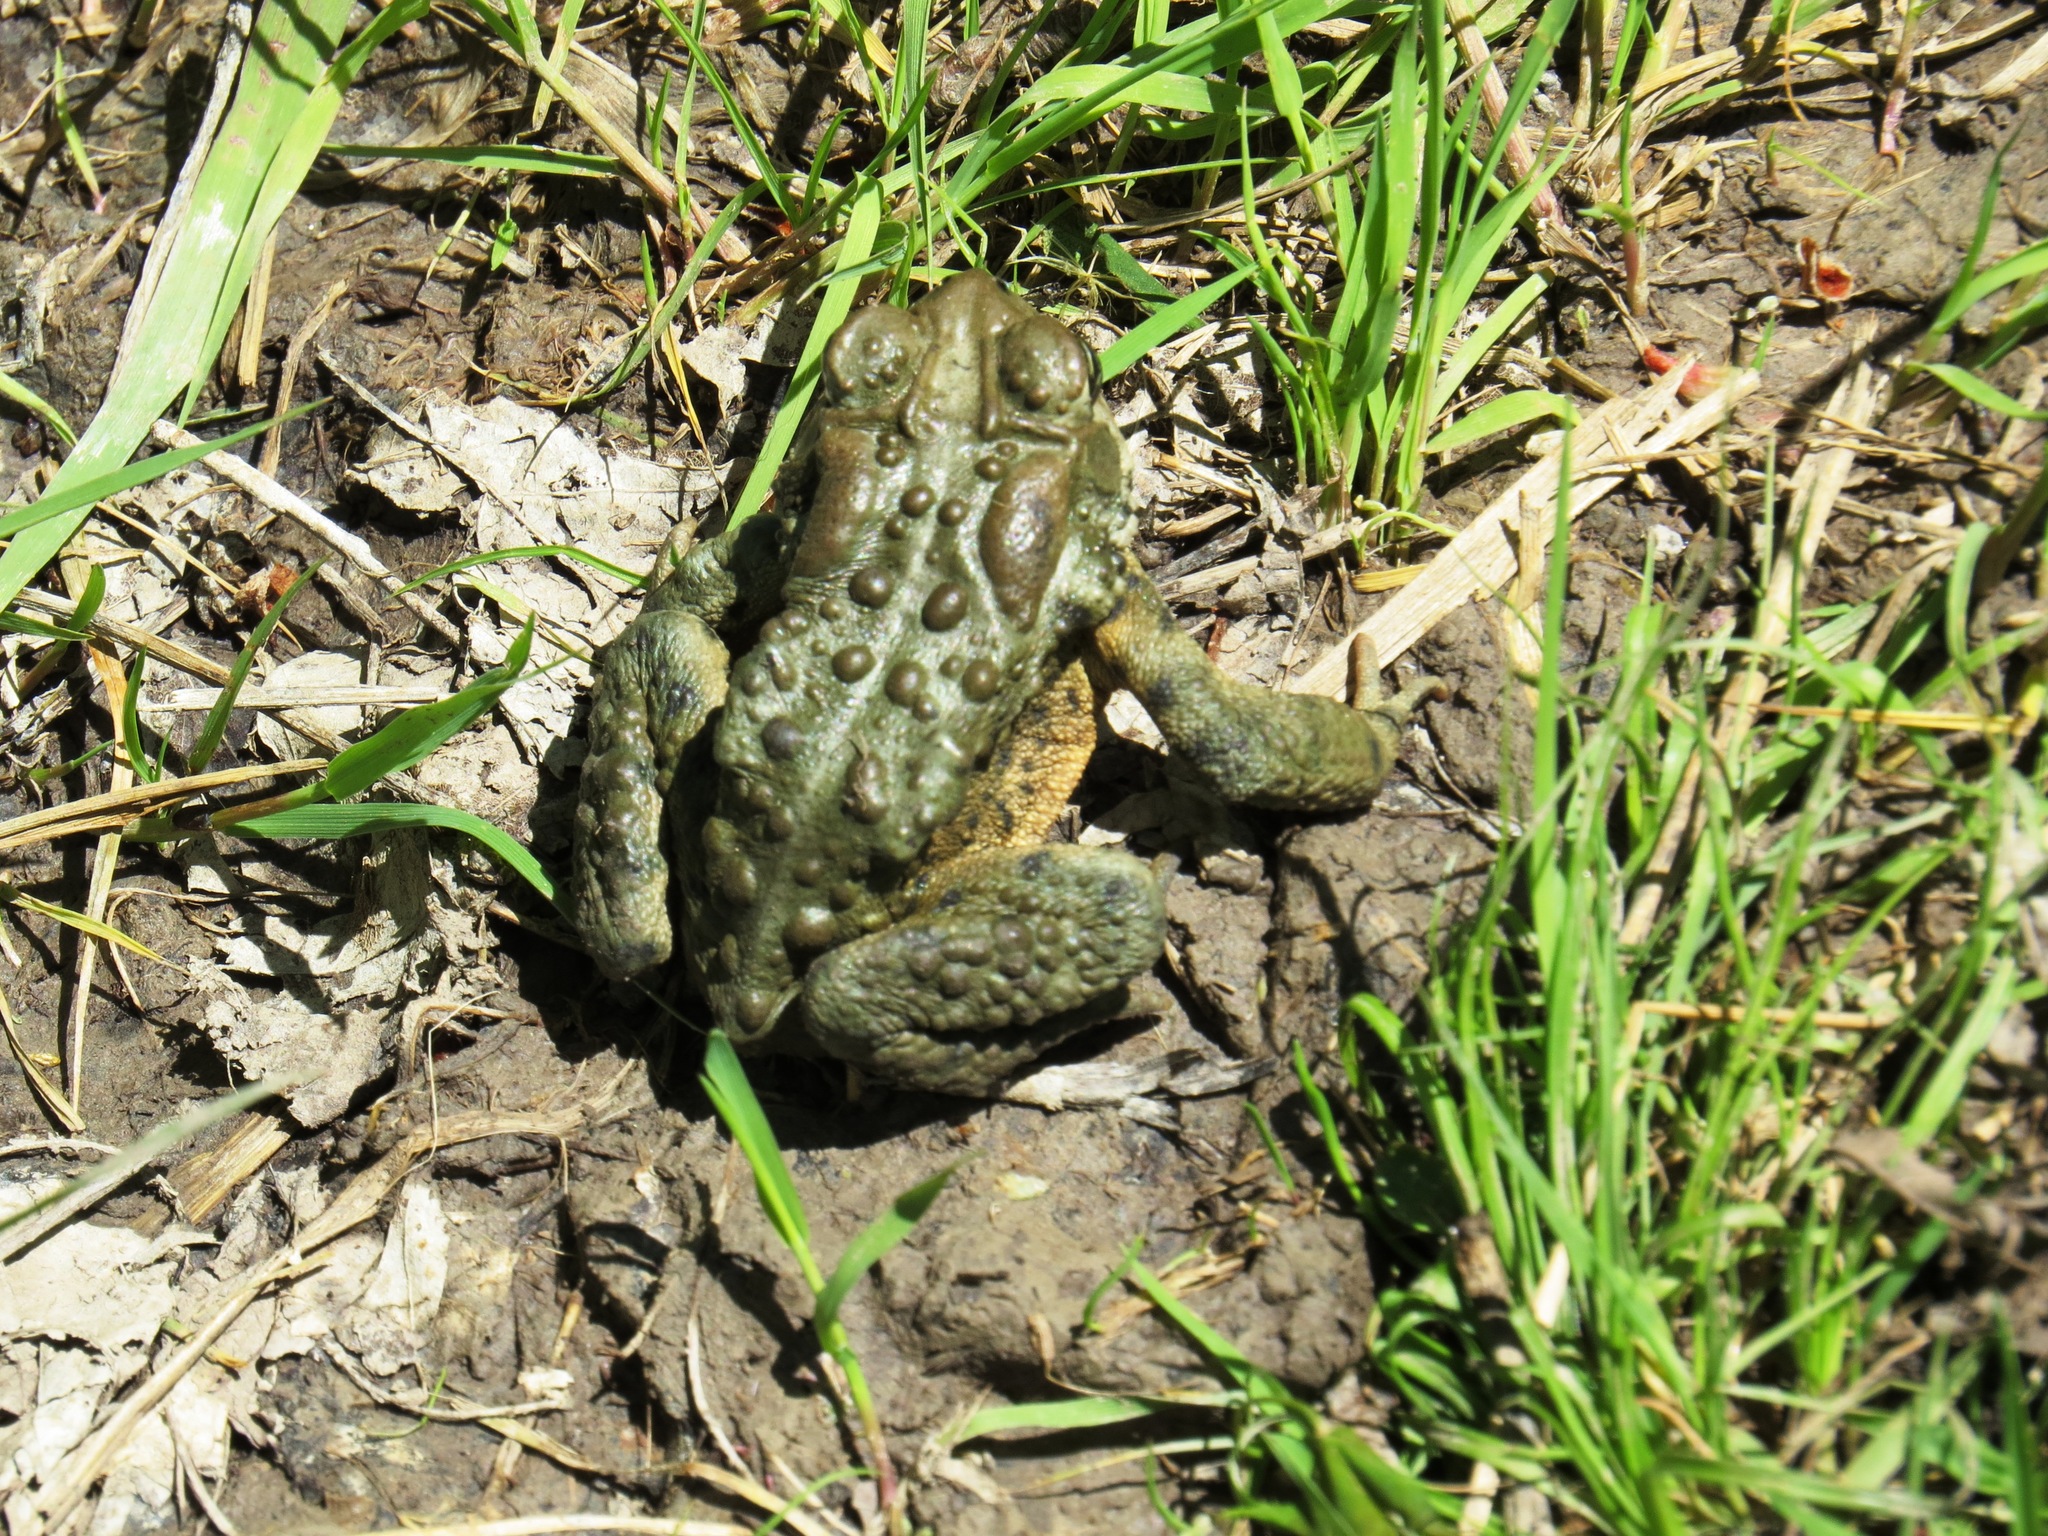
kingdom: Animalia
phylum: Chordata
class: Amphibia
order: Anura
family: Bufonidae
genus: Anaxyrus
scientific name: Anaxyrus americanus
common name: American toad
